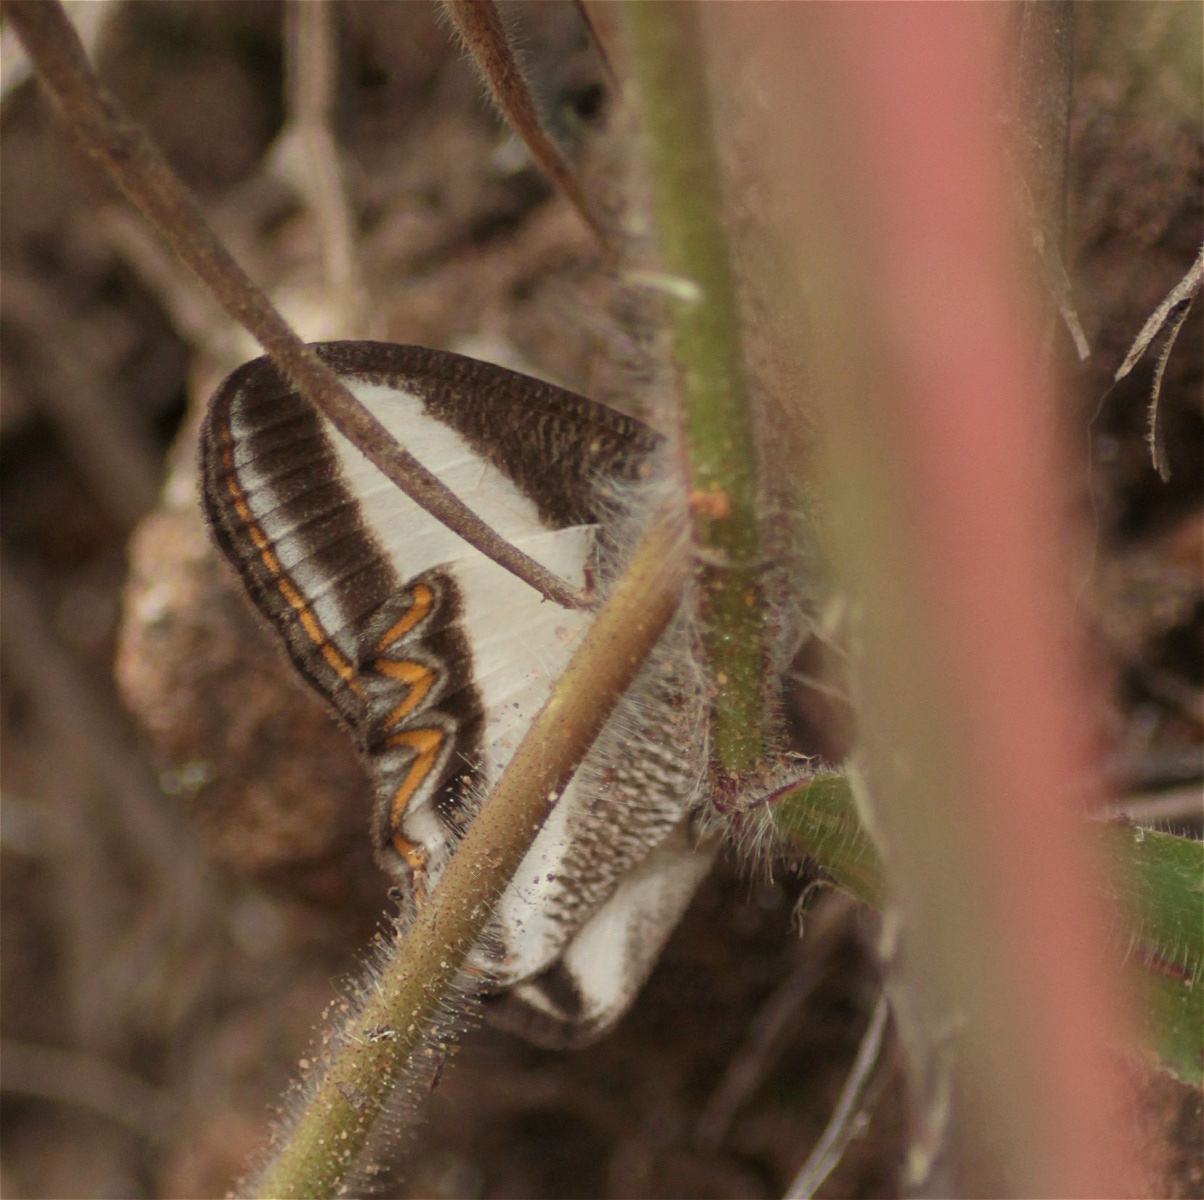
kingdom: Animalia
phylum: Arthropoda
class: Insecta
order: Lepidoptera
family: Nymphalidae
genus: Oressinoma
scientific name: Oressinoma typhla
